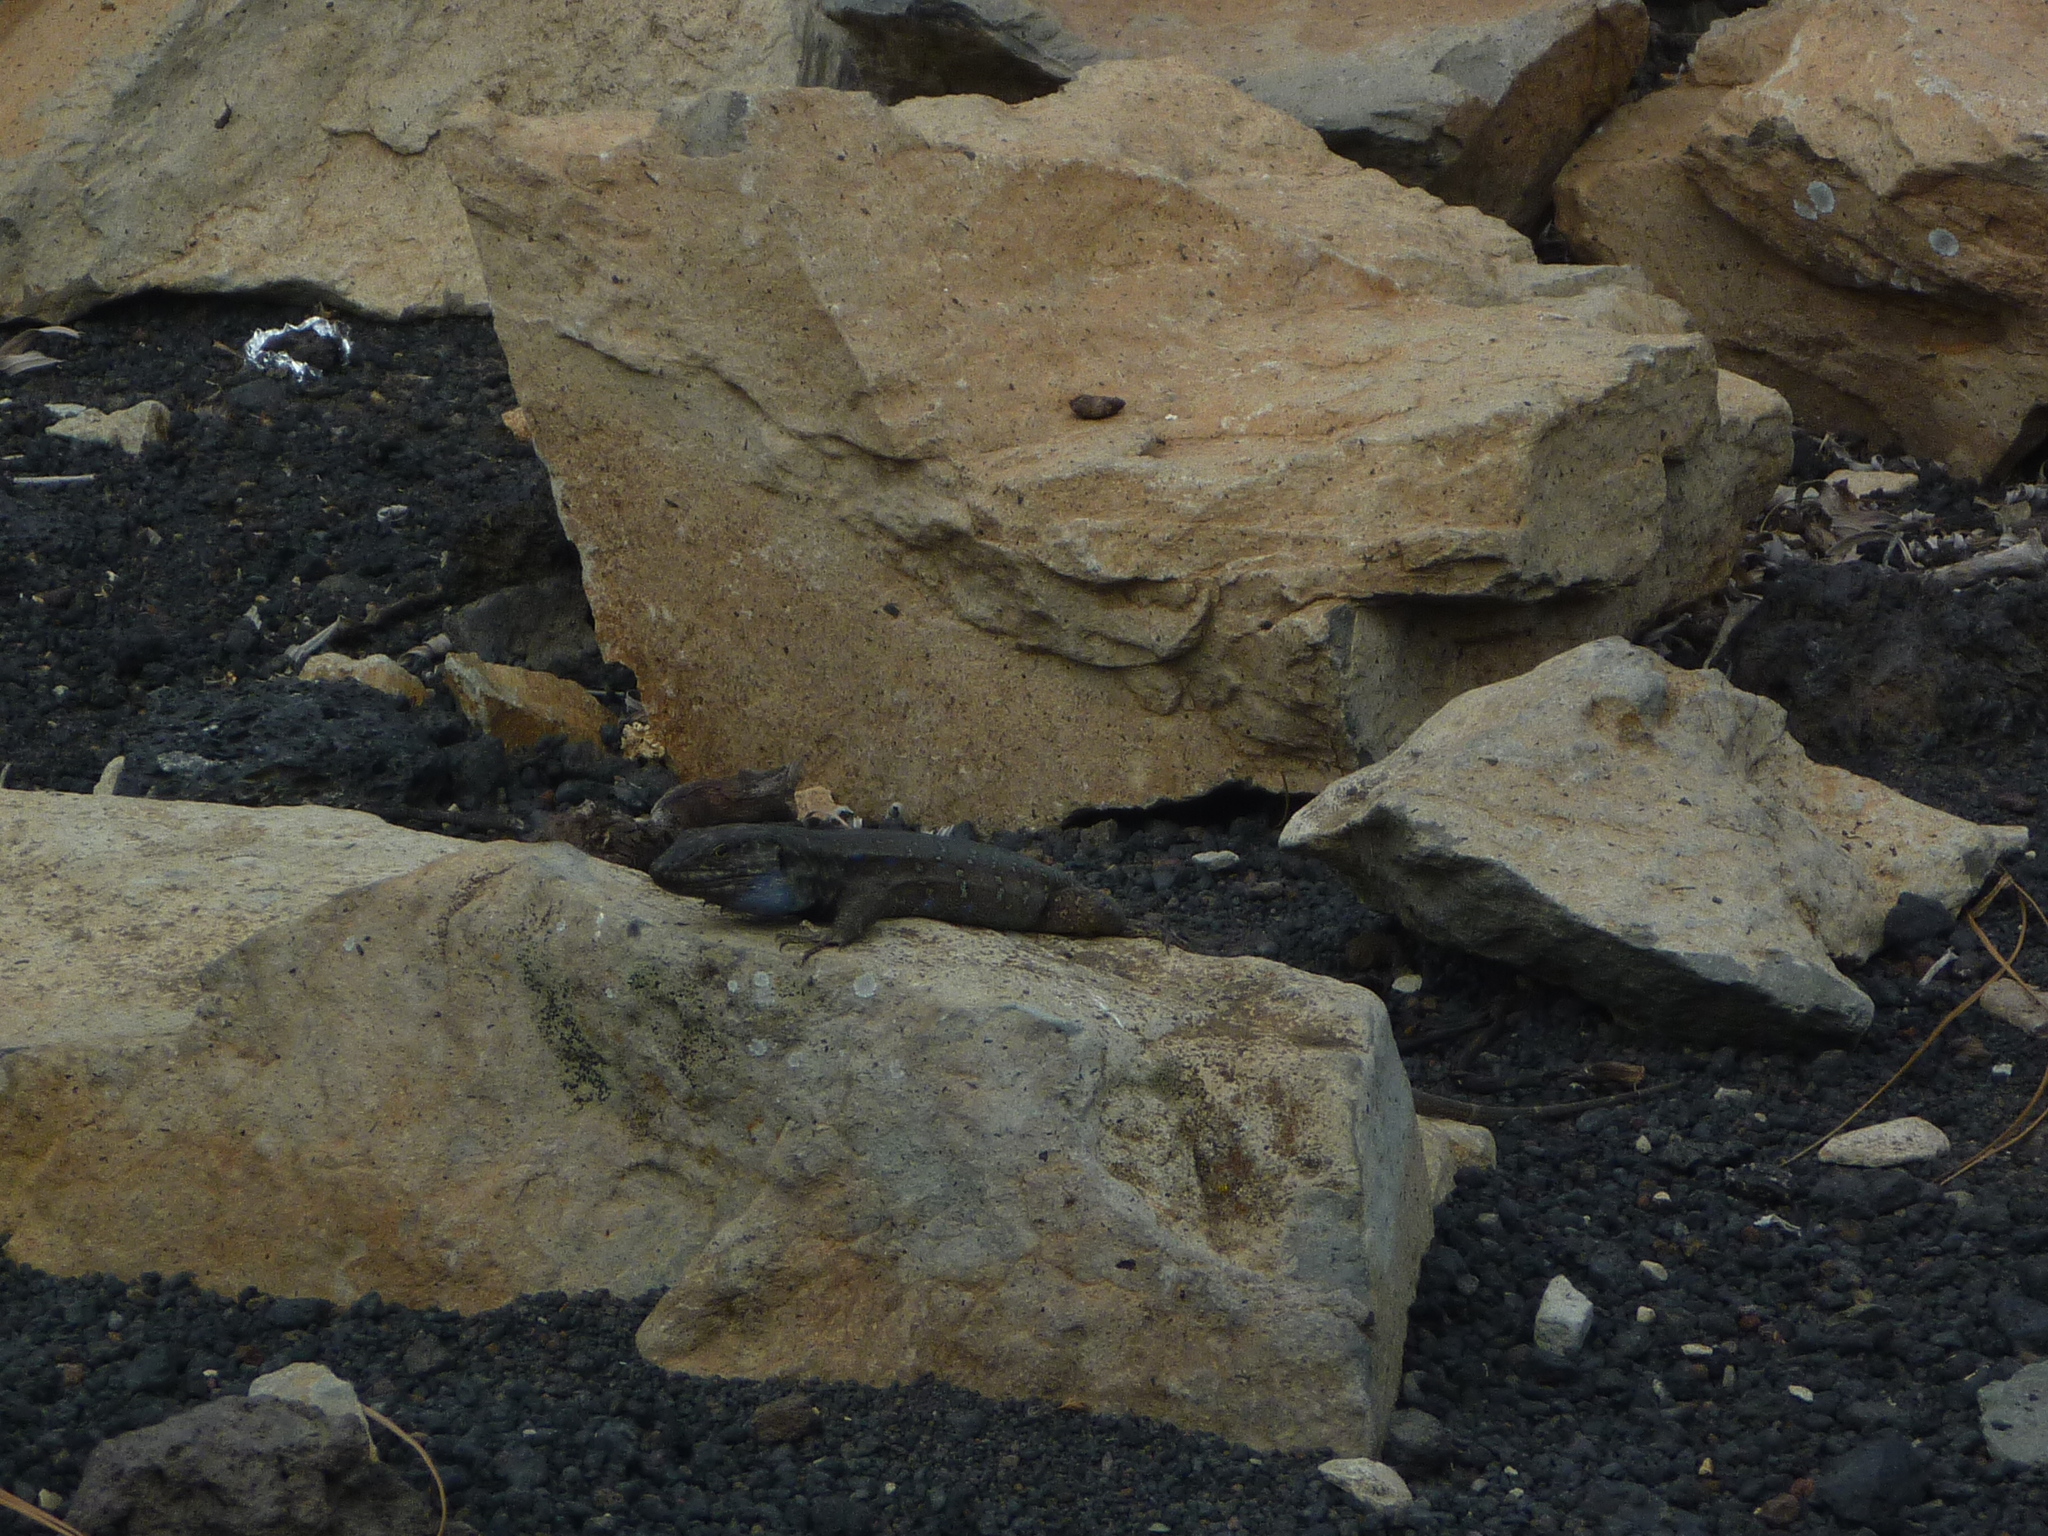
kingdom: Animalia
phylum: Chordata
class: Squamata
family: Lacertidae
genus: Gallotia
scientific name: Gallotia galloti
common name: Gallot's lizard
